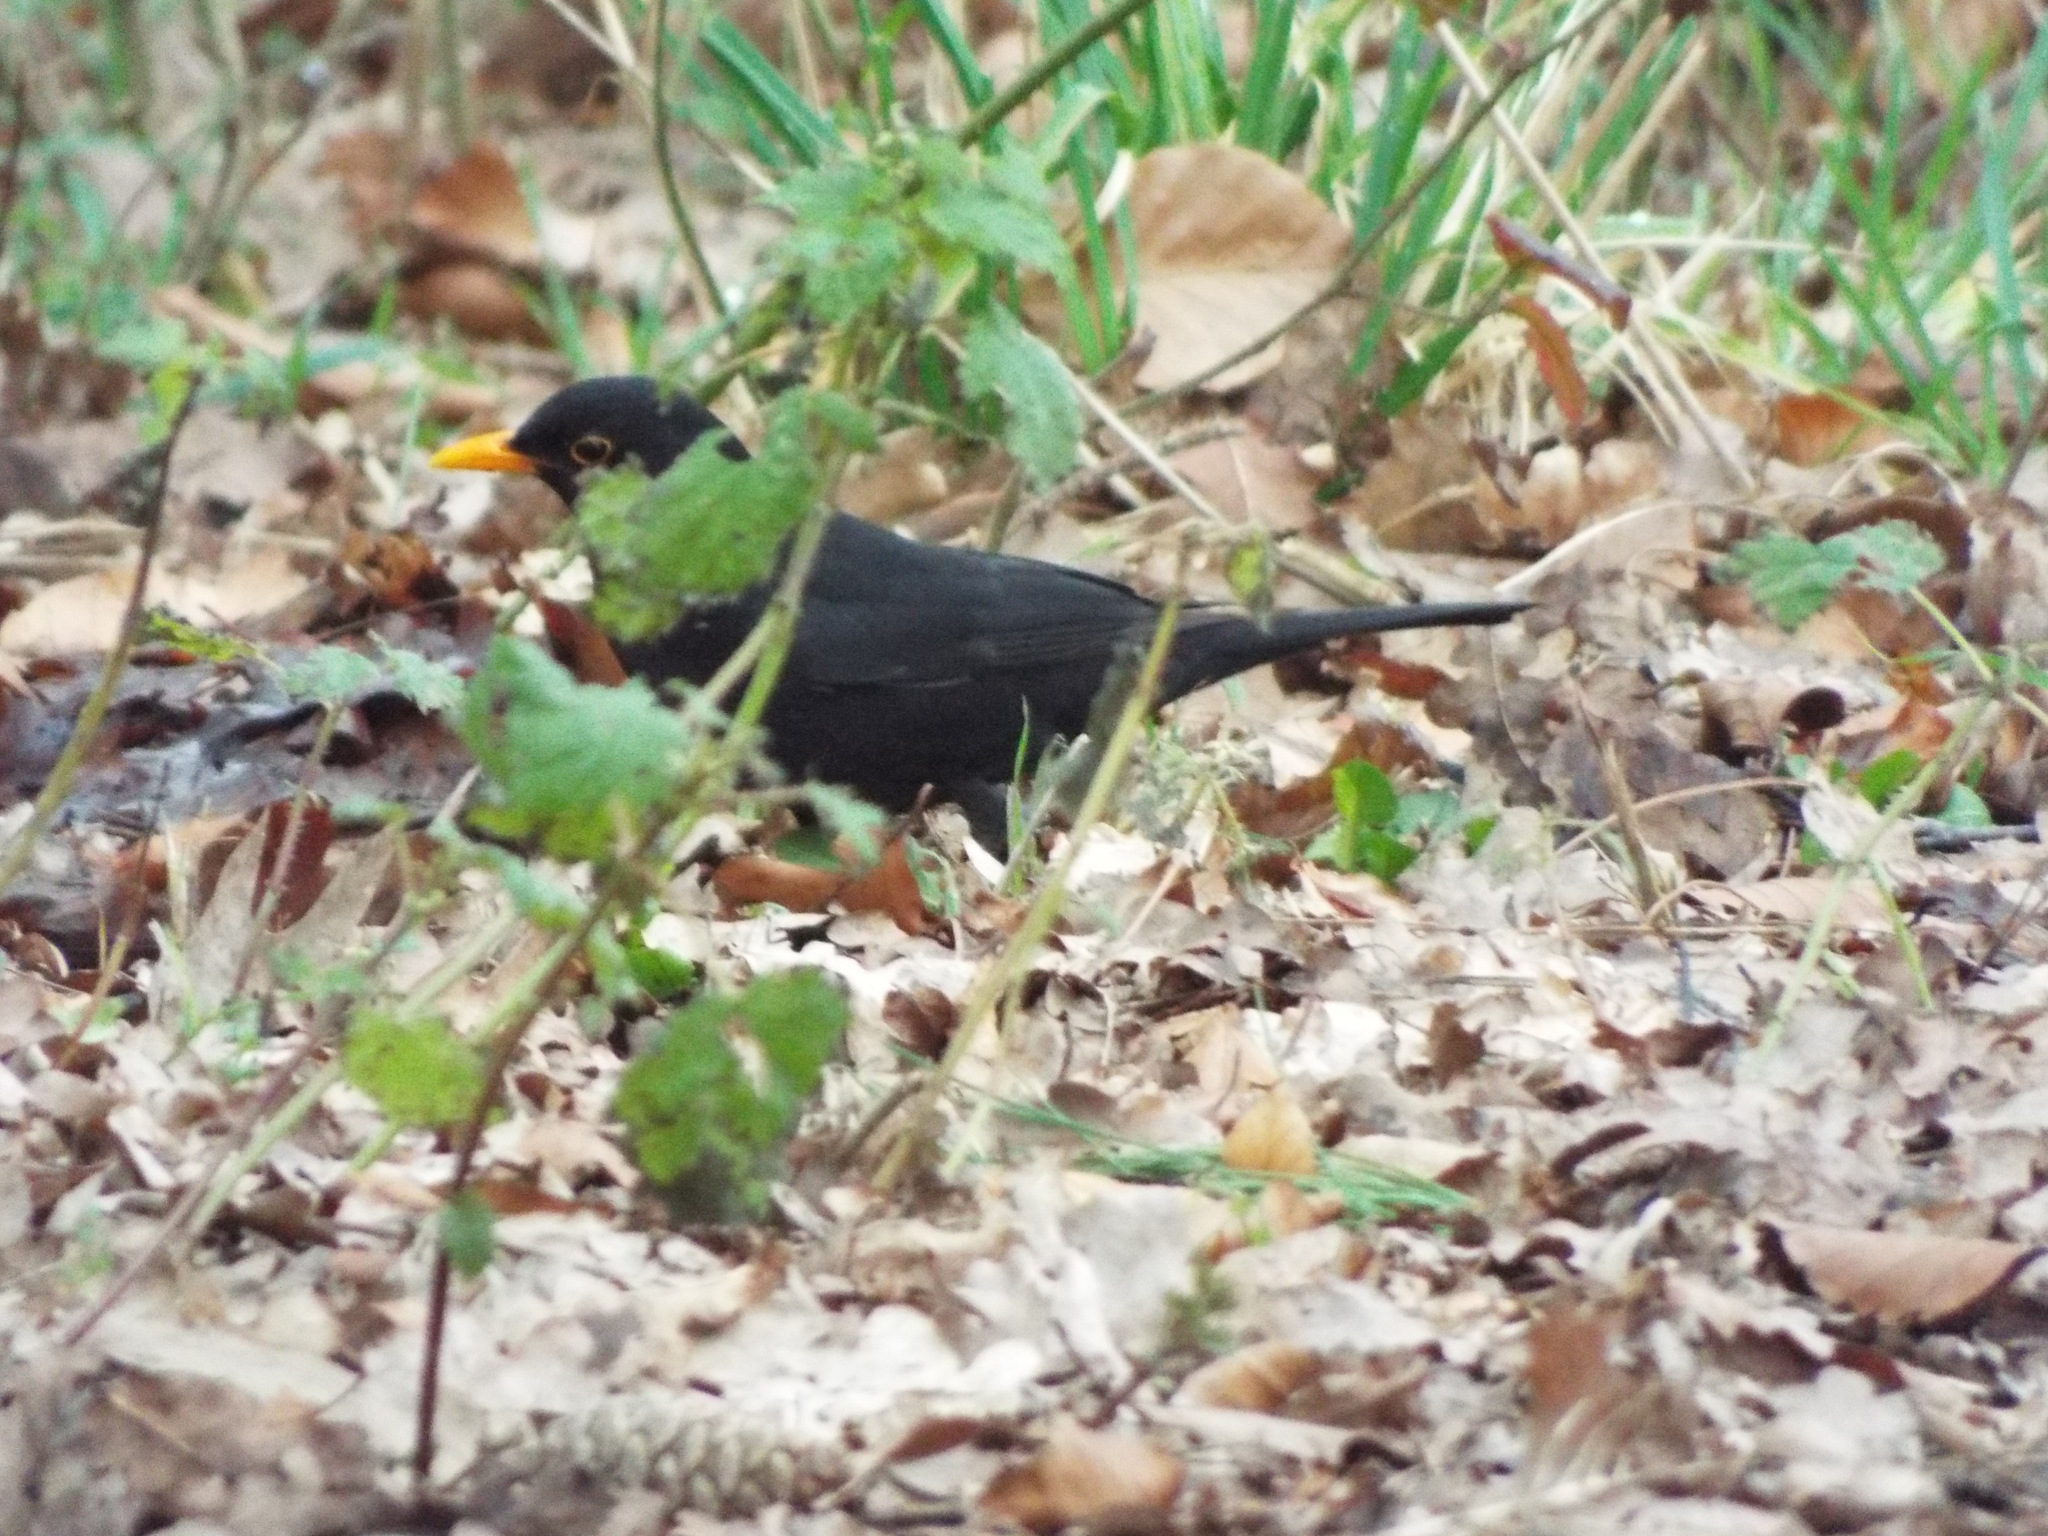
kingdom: Animalia
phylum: Chordata
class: Aves
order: Passeriformes
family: Turdidae
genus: Turdus
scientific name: Turdus merula
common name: Common blackbird
